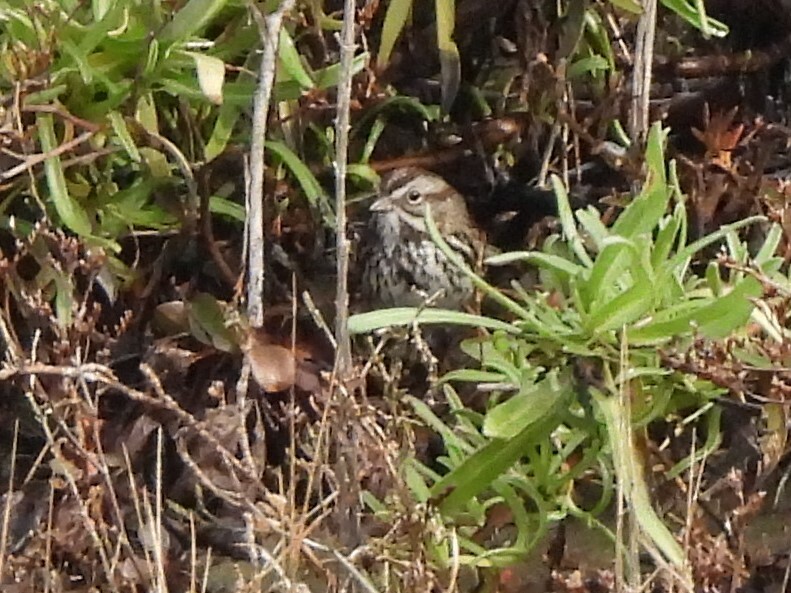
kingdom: Animalia
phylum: Chordata
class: Aves
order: Passeriformes
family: Passerellidae
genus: Melospiza
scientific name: Melospiza melodia
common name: Song sparrow
